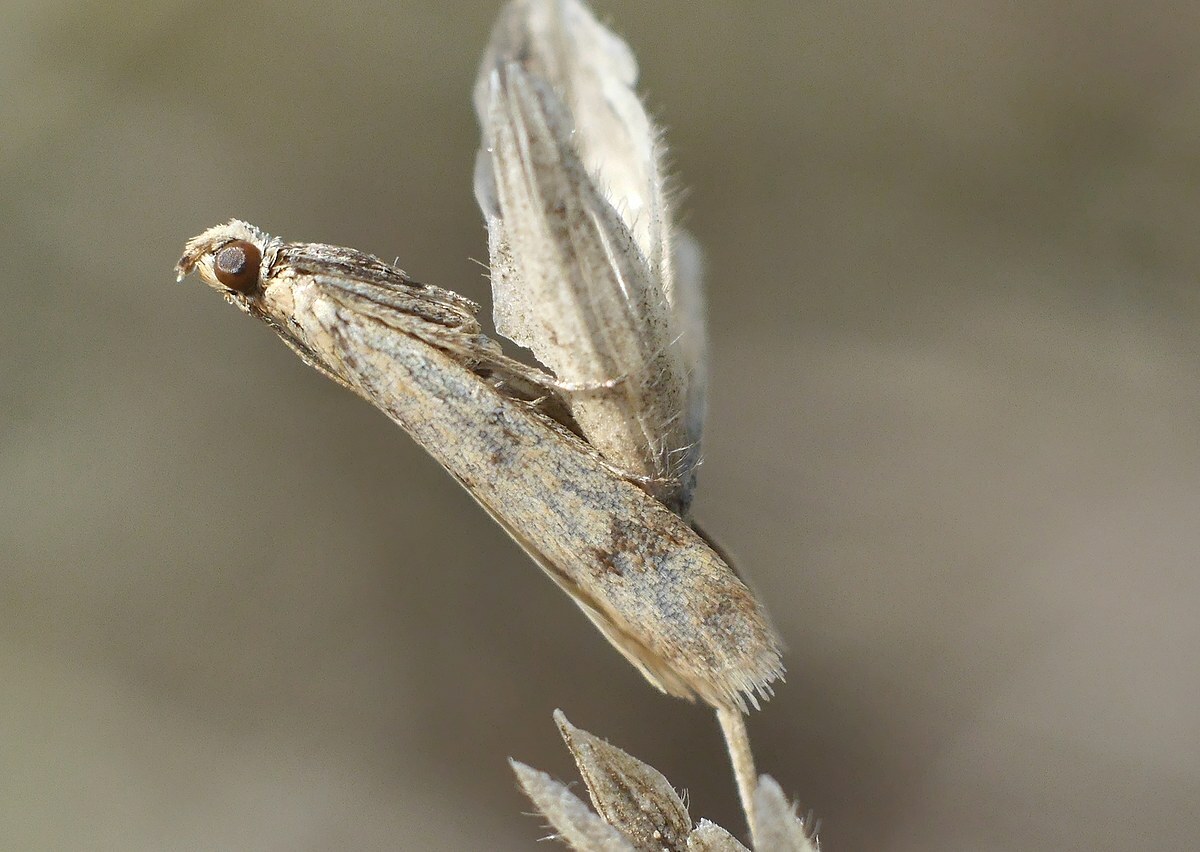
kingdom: Animalia
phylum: Arthropoda
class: Insecta
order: Lepidoptera
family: Pyralidae
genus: Homoeosoma
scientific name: Homoeosoma sinuella
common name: Twin-barred knot-horn
